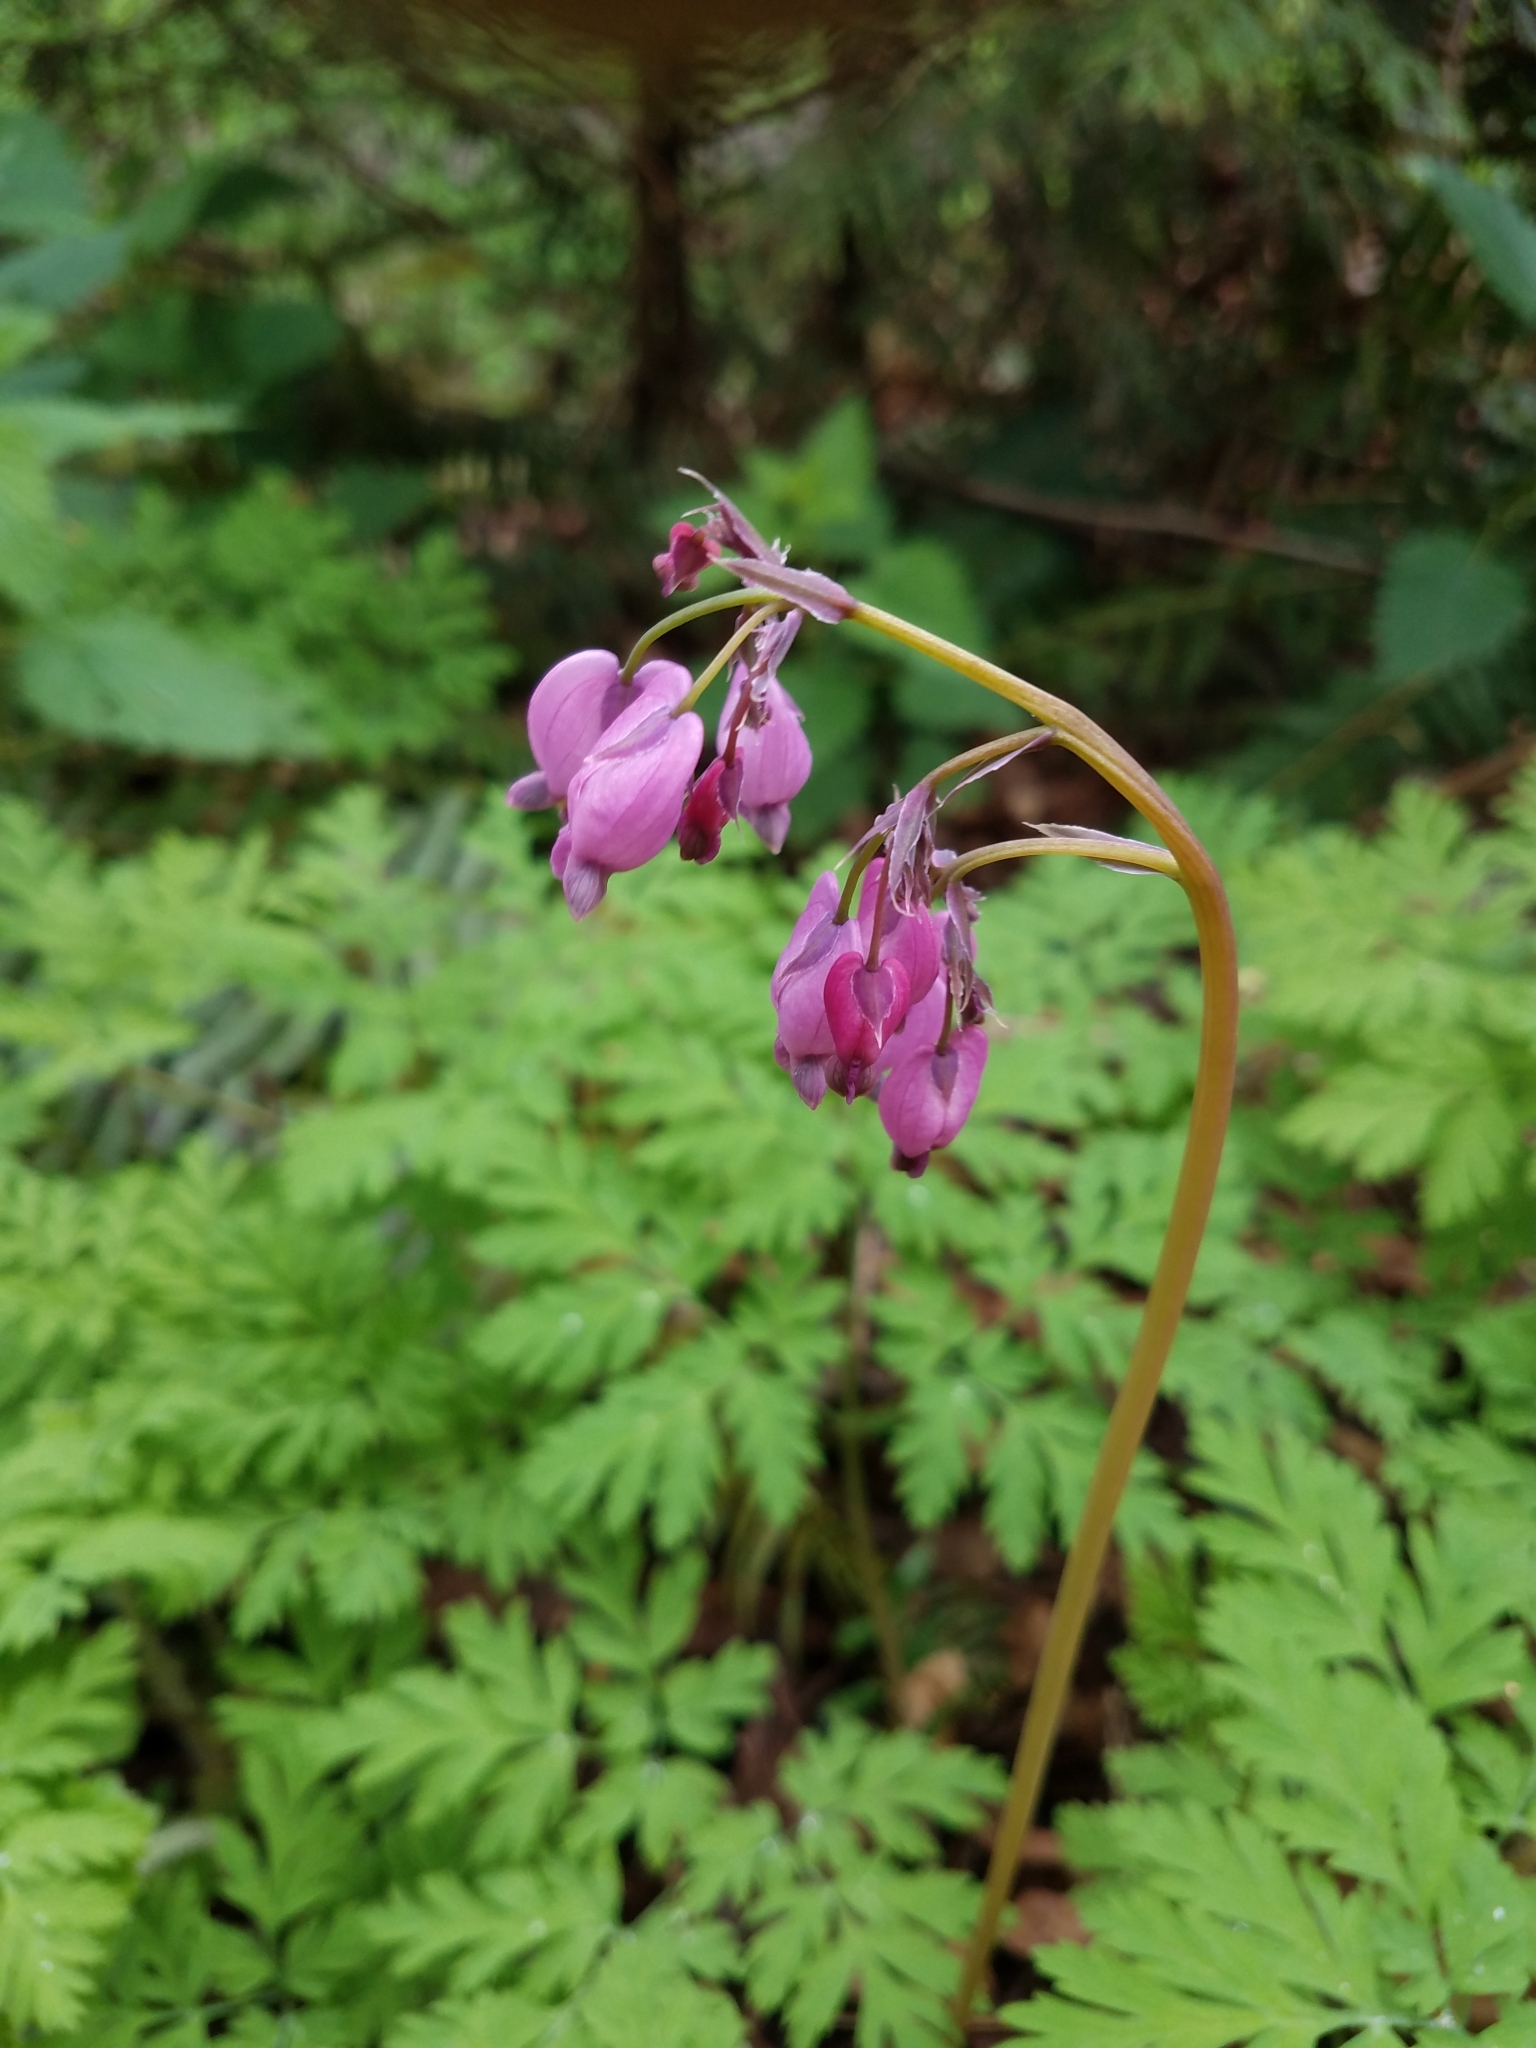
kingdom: Plantae
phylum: Tracheophyta
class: Magnoliopsida
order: Ranunculales
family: Papaveraceae
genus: Dicentra
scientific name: Dicentra formosa
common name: Bleeding-heart
